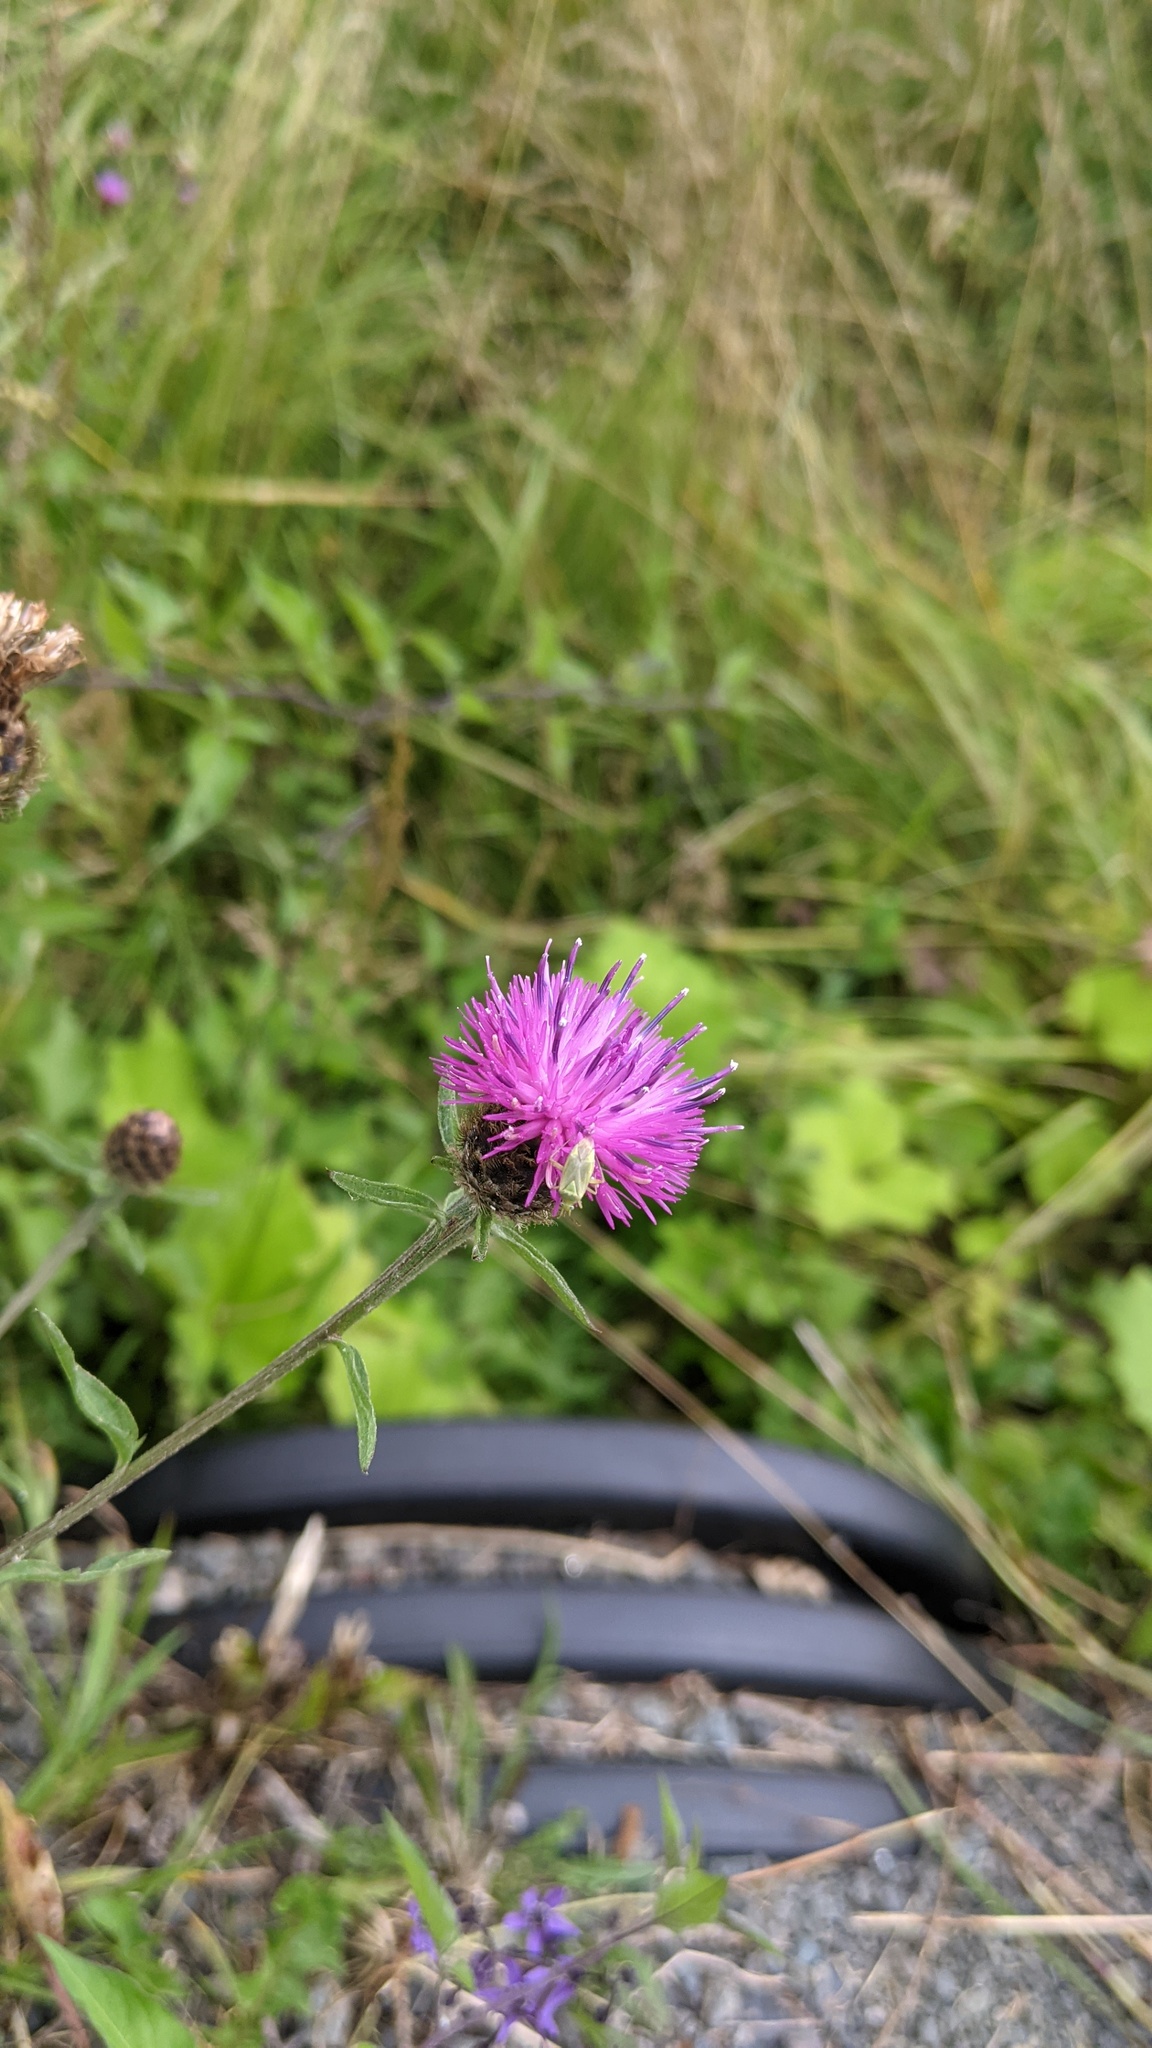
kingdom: Plantae
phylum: Tracheophyta
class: Magnoliopsida
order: Asterales
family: Asteraceae
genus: Centaurea
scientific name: Centaurea nigra
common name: Lesser knapweed
